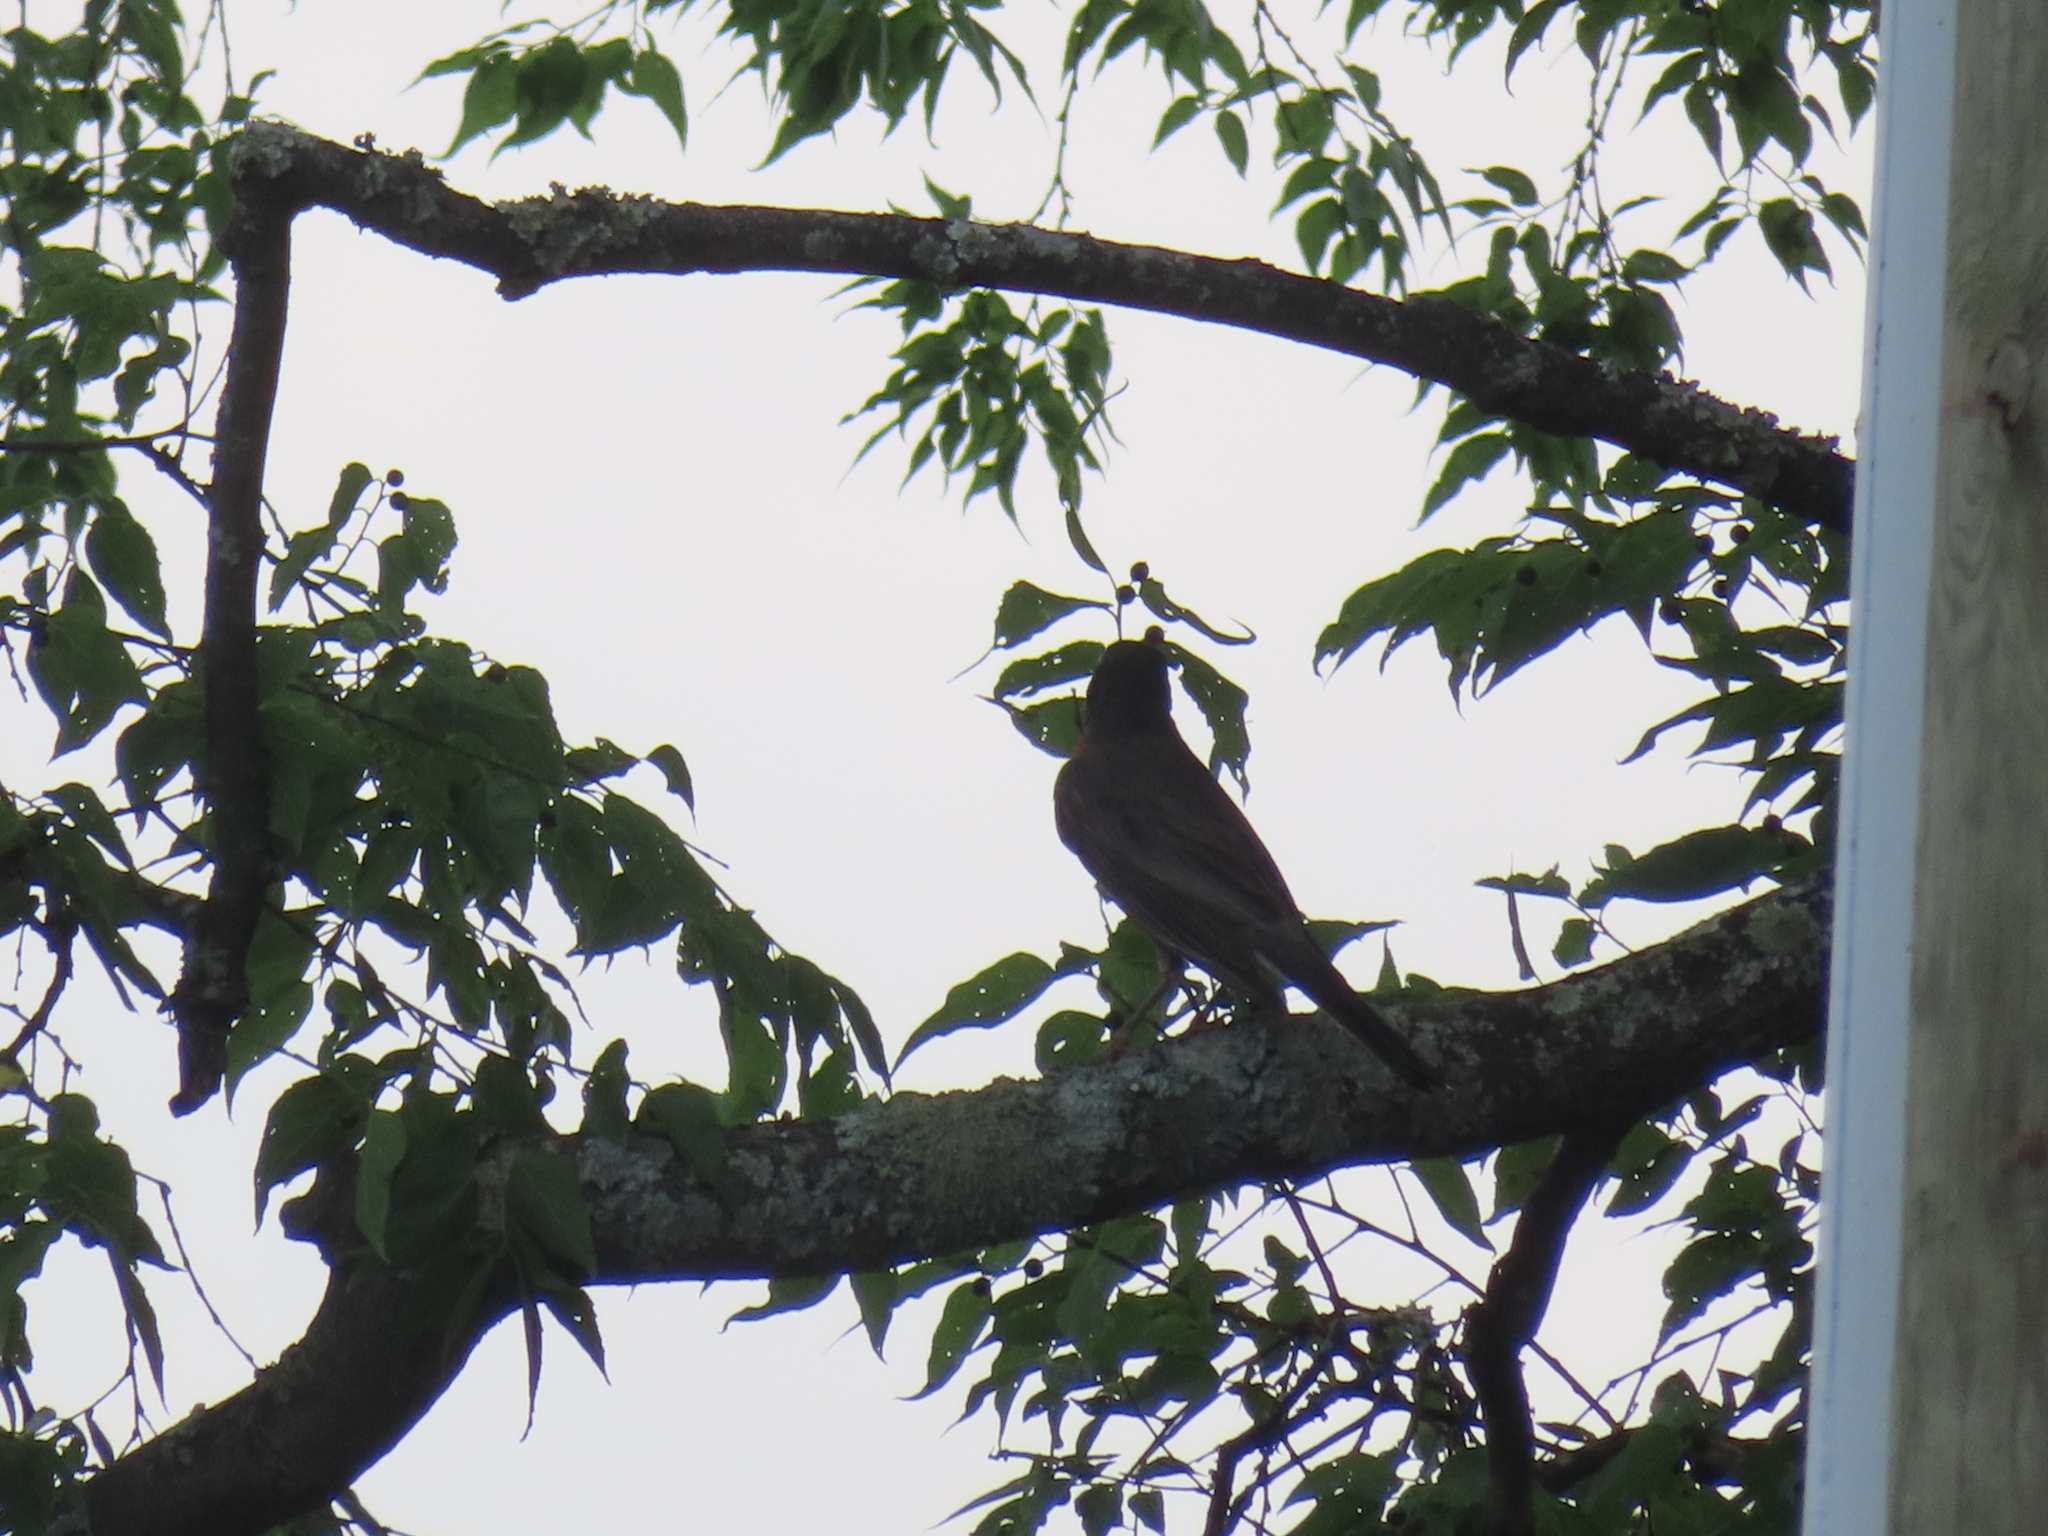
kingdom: Animalia
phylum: Chordata
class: Aves
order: Passeriformes
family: Turdidae
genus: Turdus
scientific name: Turdus migratorius
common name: American robin
